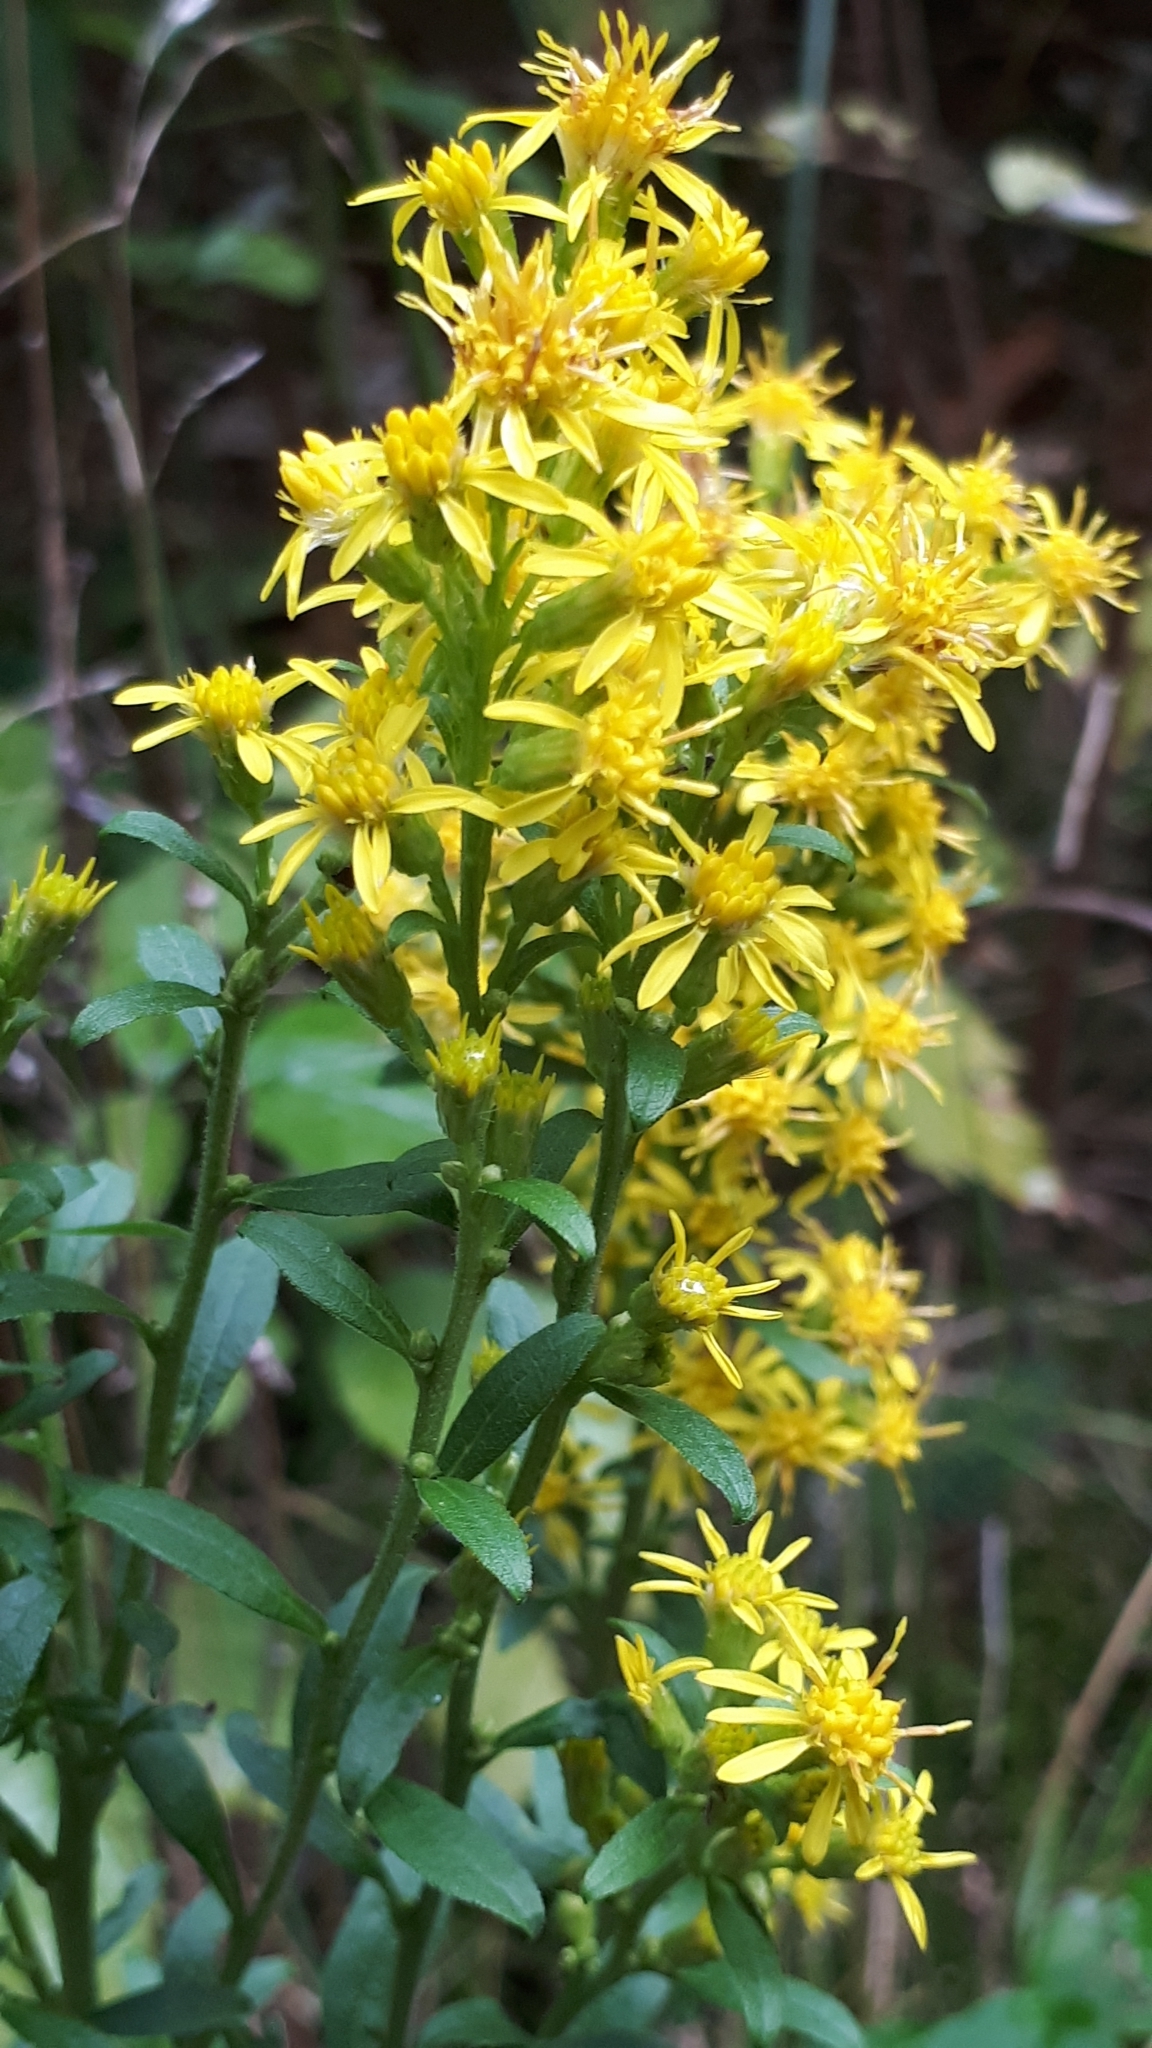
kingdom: Plantae
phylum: Tracheophyta
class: Magnoliopsida
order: Asterales
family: Asteraceae
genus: Solidago
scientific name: Solidago virgaurea
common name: Goldenrod
